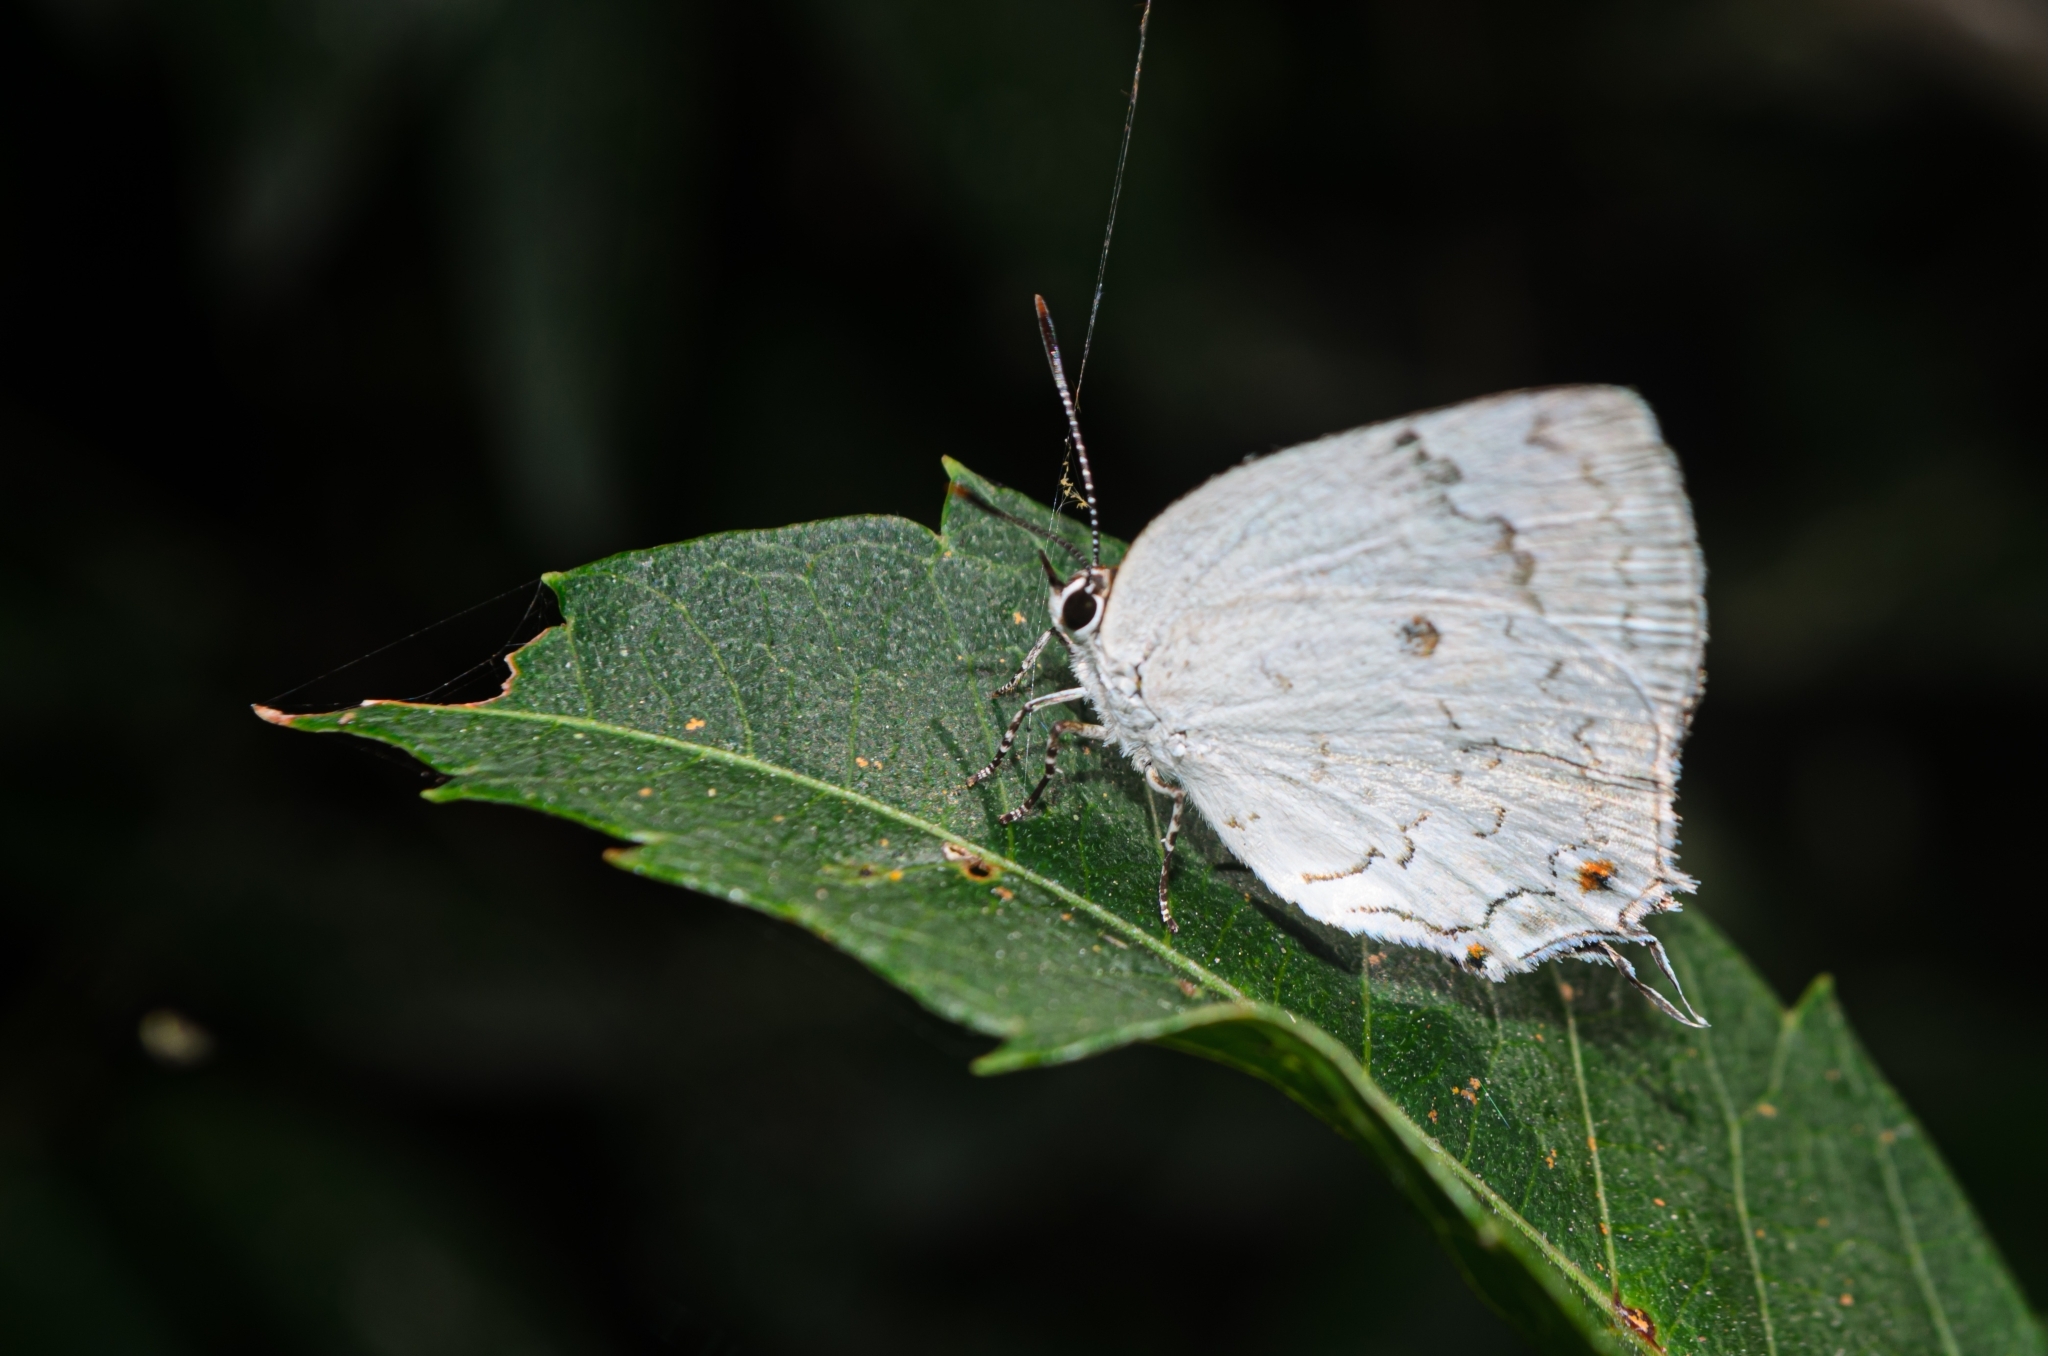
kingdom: Animalia
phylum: Arthropoda
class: Insecta
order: Lepidoptera
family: Lycaenidae
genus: Ostrinotes
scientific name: Ostrinotes
